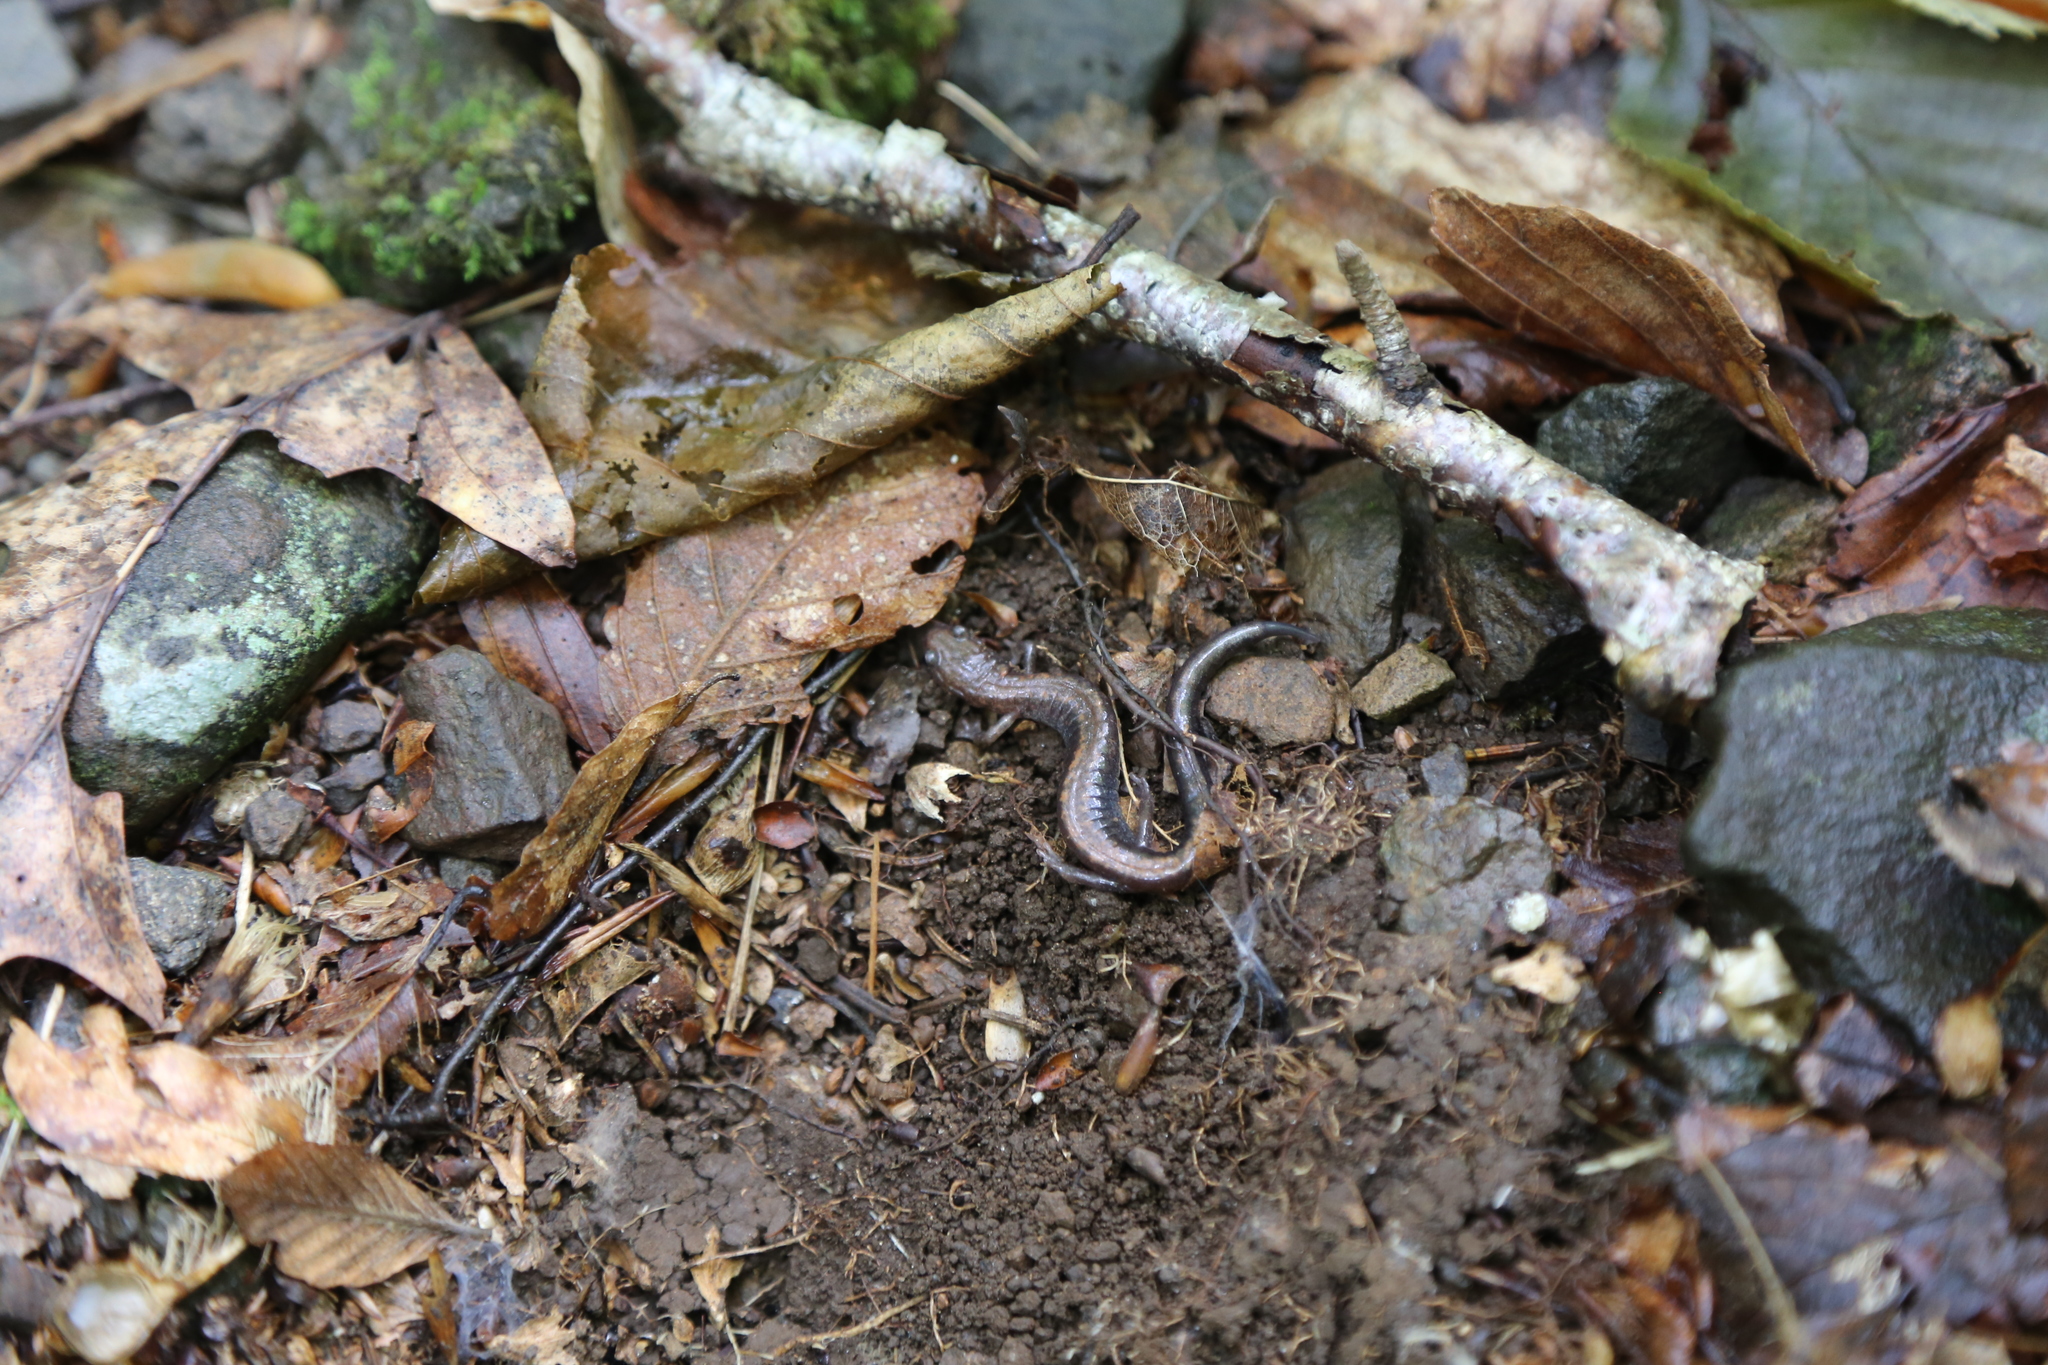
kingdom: Animalia
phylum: Chordata
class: Amphibia
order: Caudata
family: Plethodontidae
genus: Plethodon
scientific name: Plethodon cinereus
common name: Redback salamander
